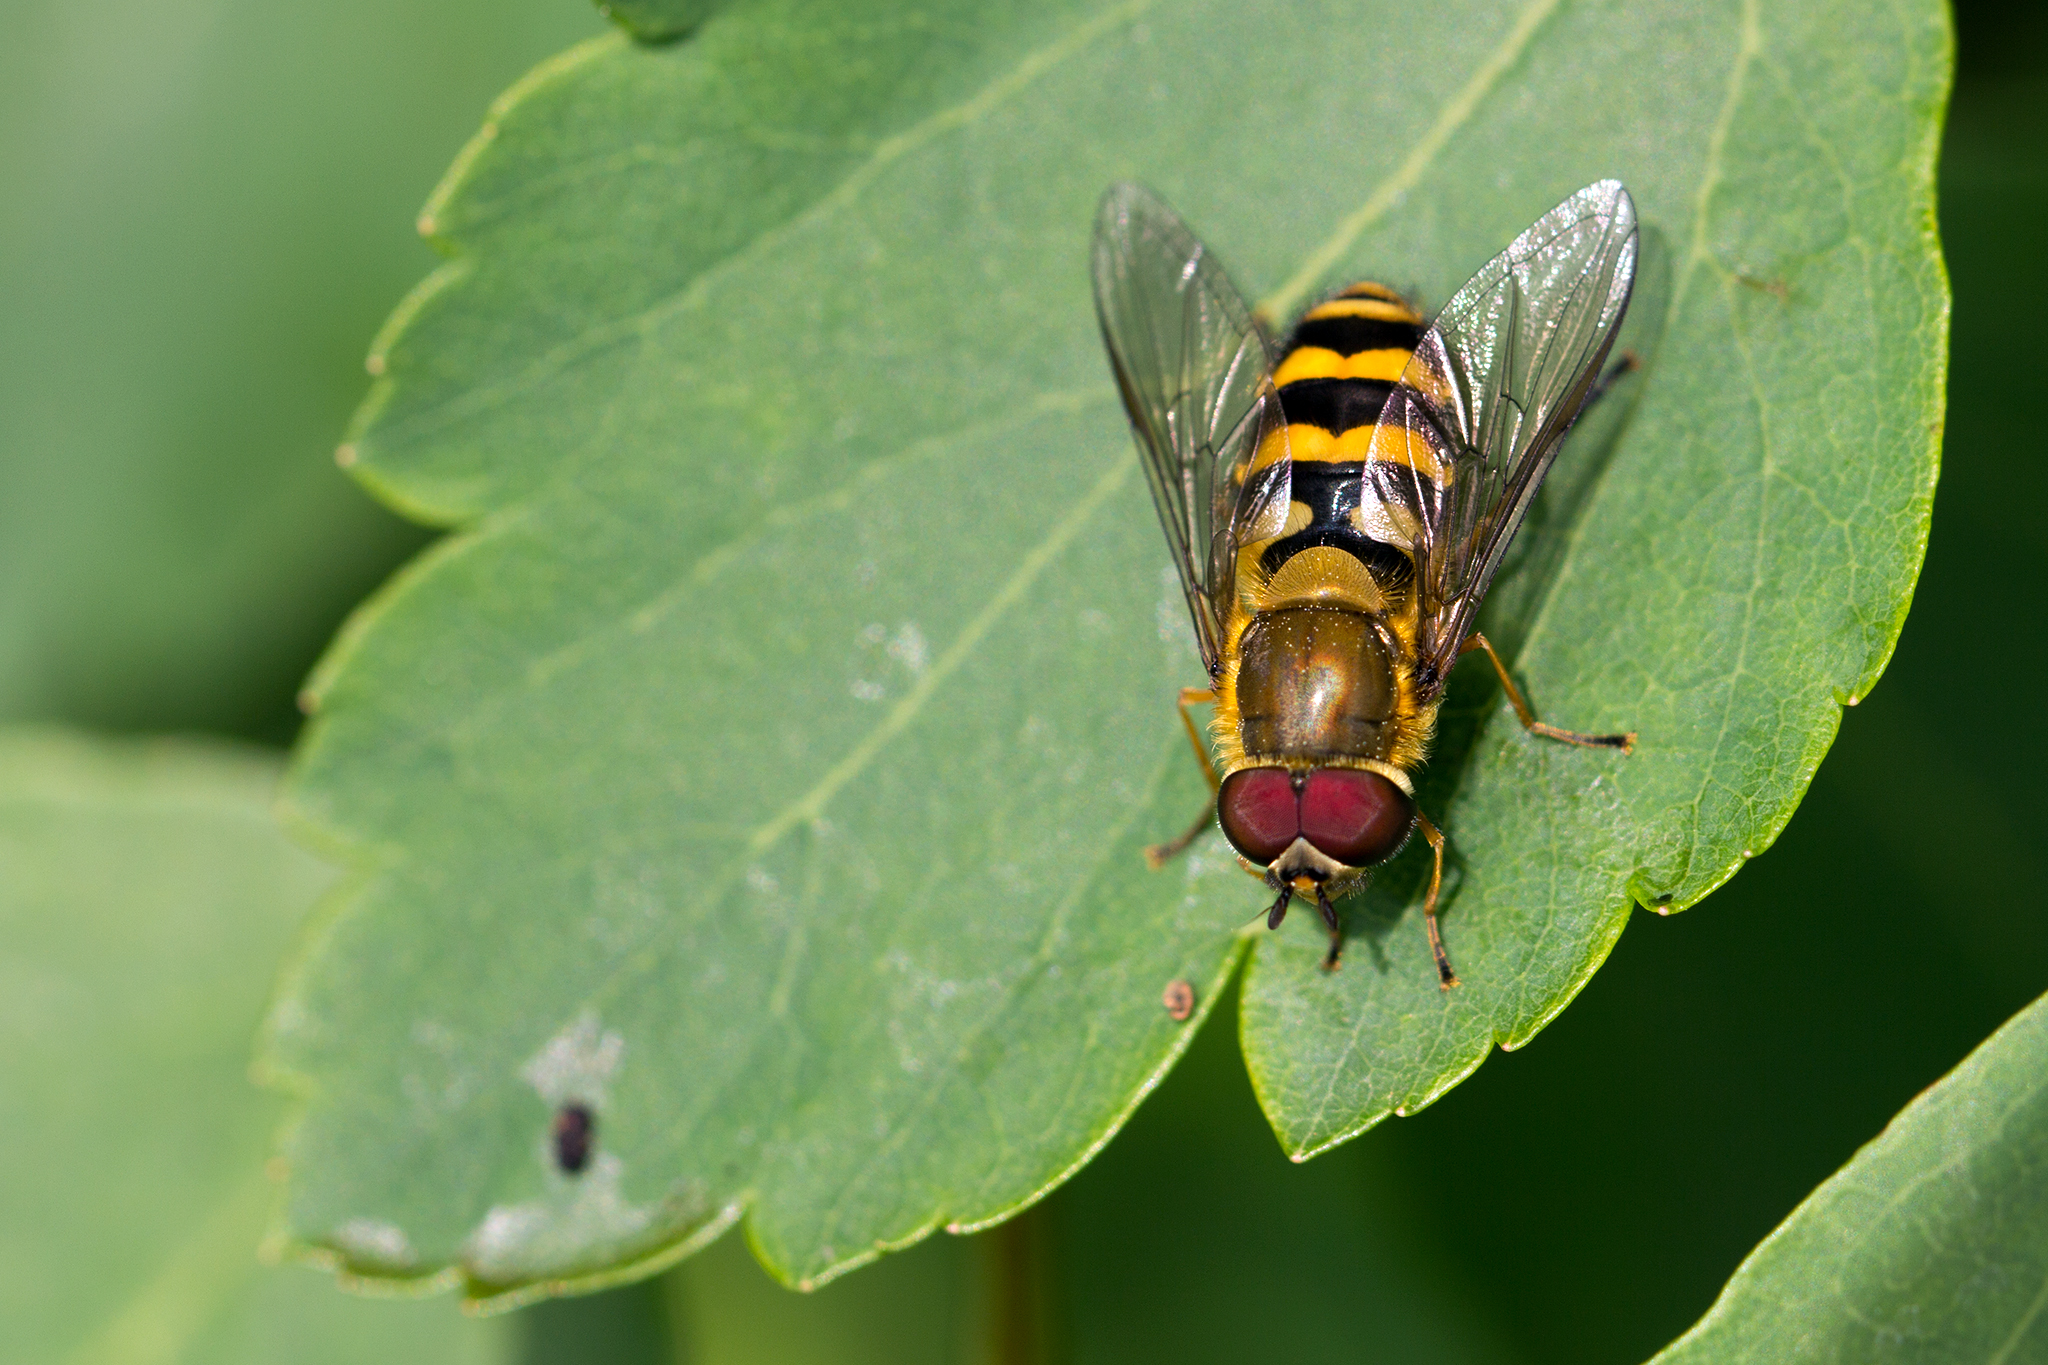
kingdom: Animalia
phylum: Arthropoda
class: Insecta
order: Diptera
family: Syrphidae
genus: Syrphus
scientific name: Syrphus torvus
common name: Hairy-eyed flower fly
